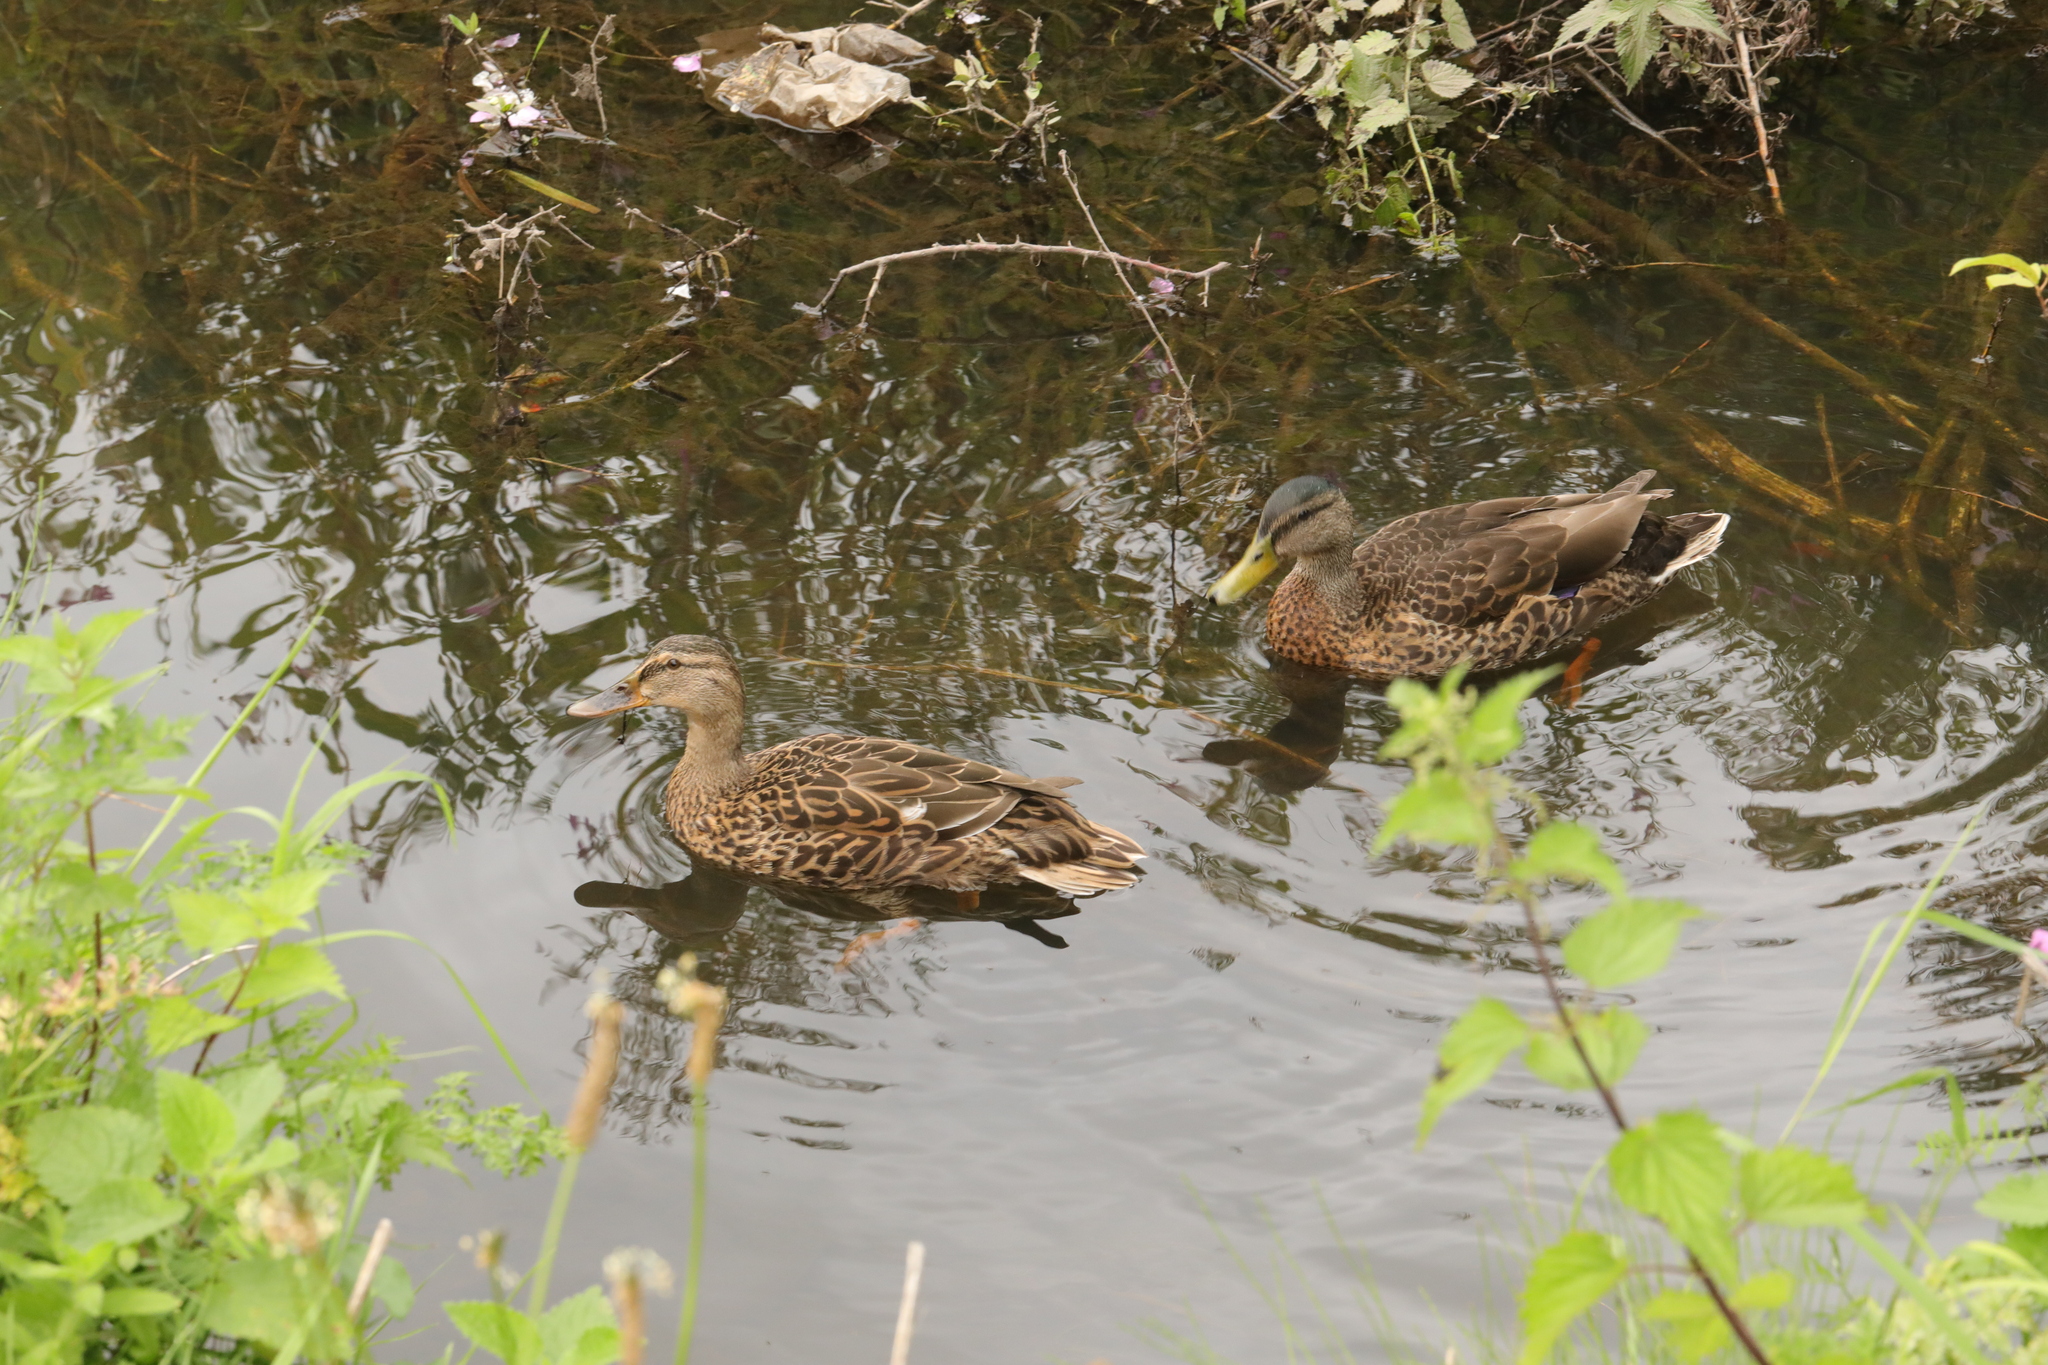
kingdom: Animalia
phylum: Chordata
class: Aves
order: Anseriformes
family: Anatidae
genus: Anas
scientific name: Anas platyrhynchos
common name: Mallard
